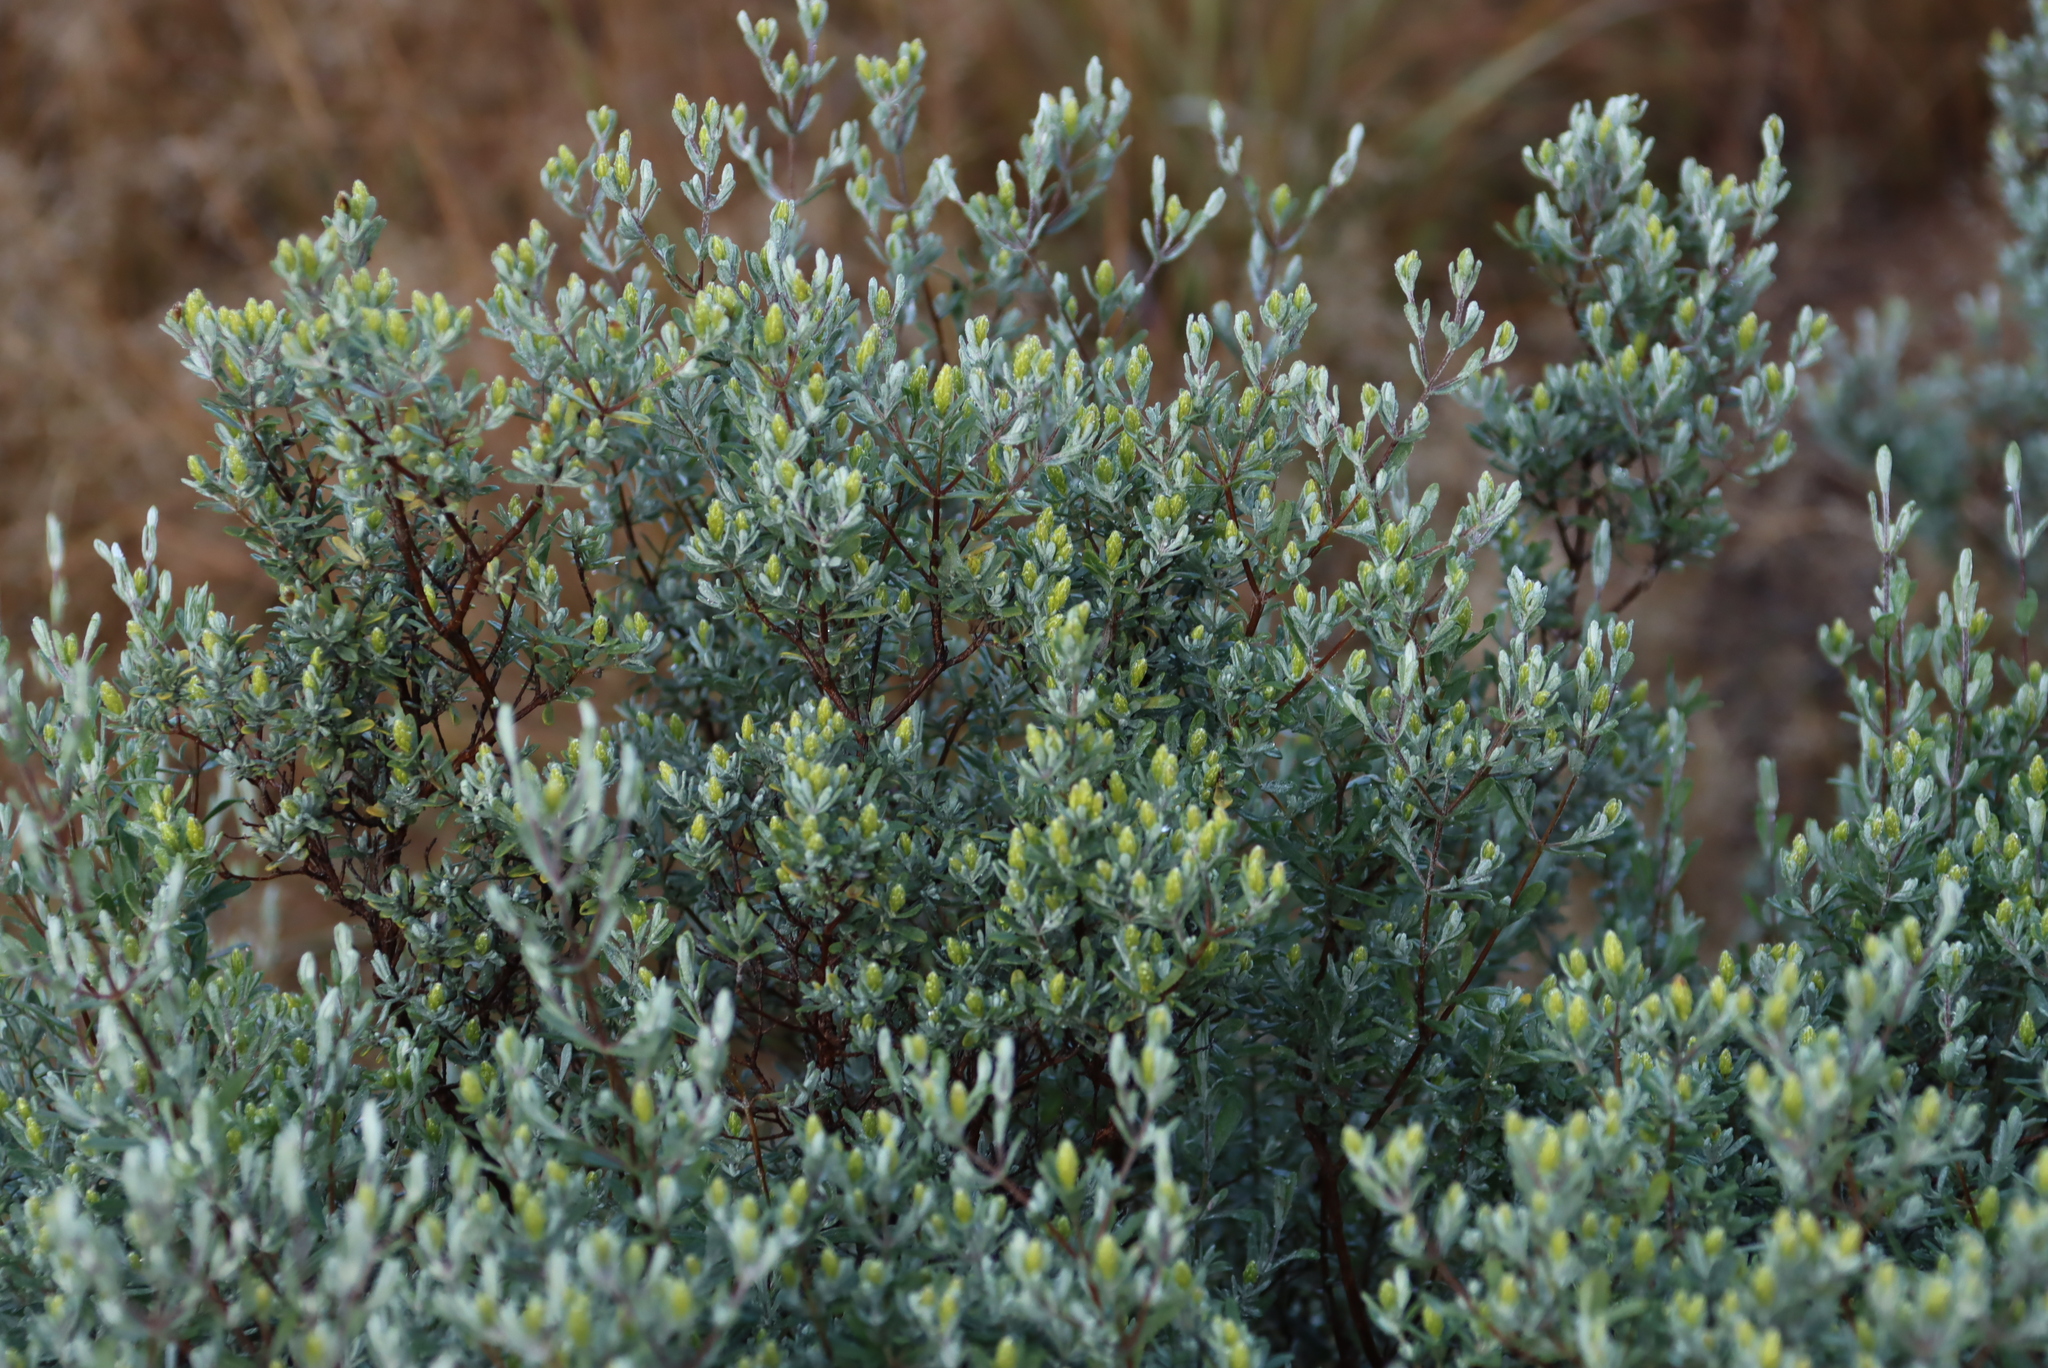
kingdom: Plantae
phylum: Tracheophyta
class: Magnoliopsida
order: Asterales
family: Asteraceae
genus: Pteronia
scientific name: Pteronia incana
